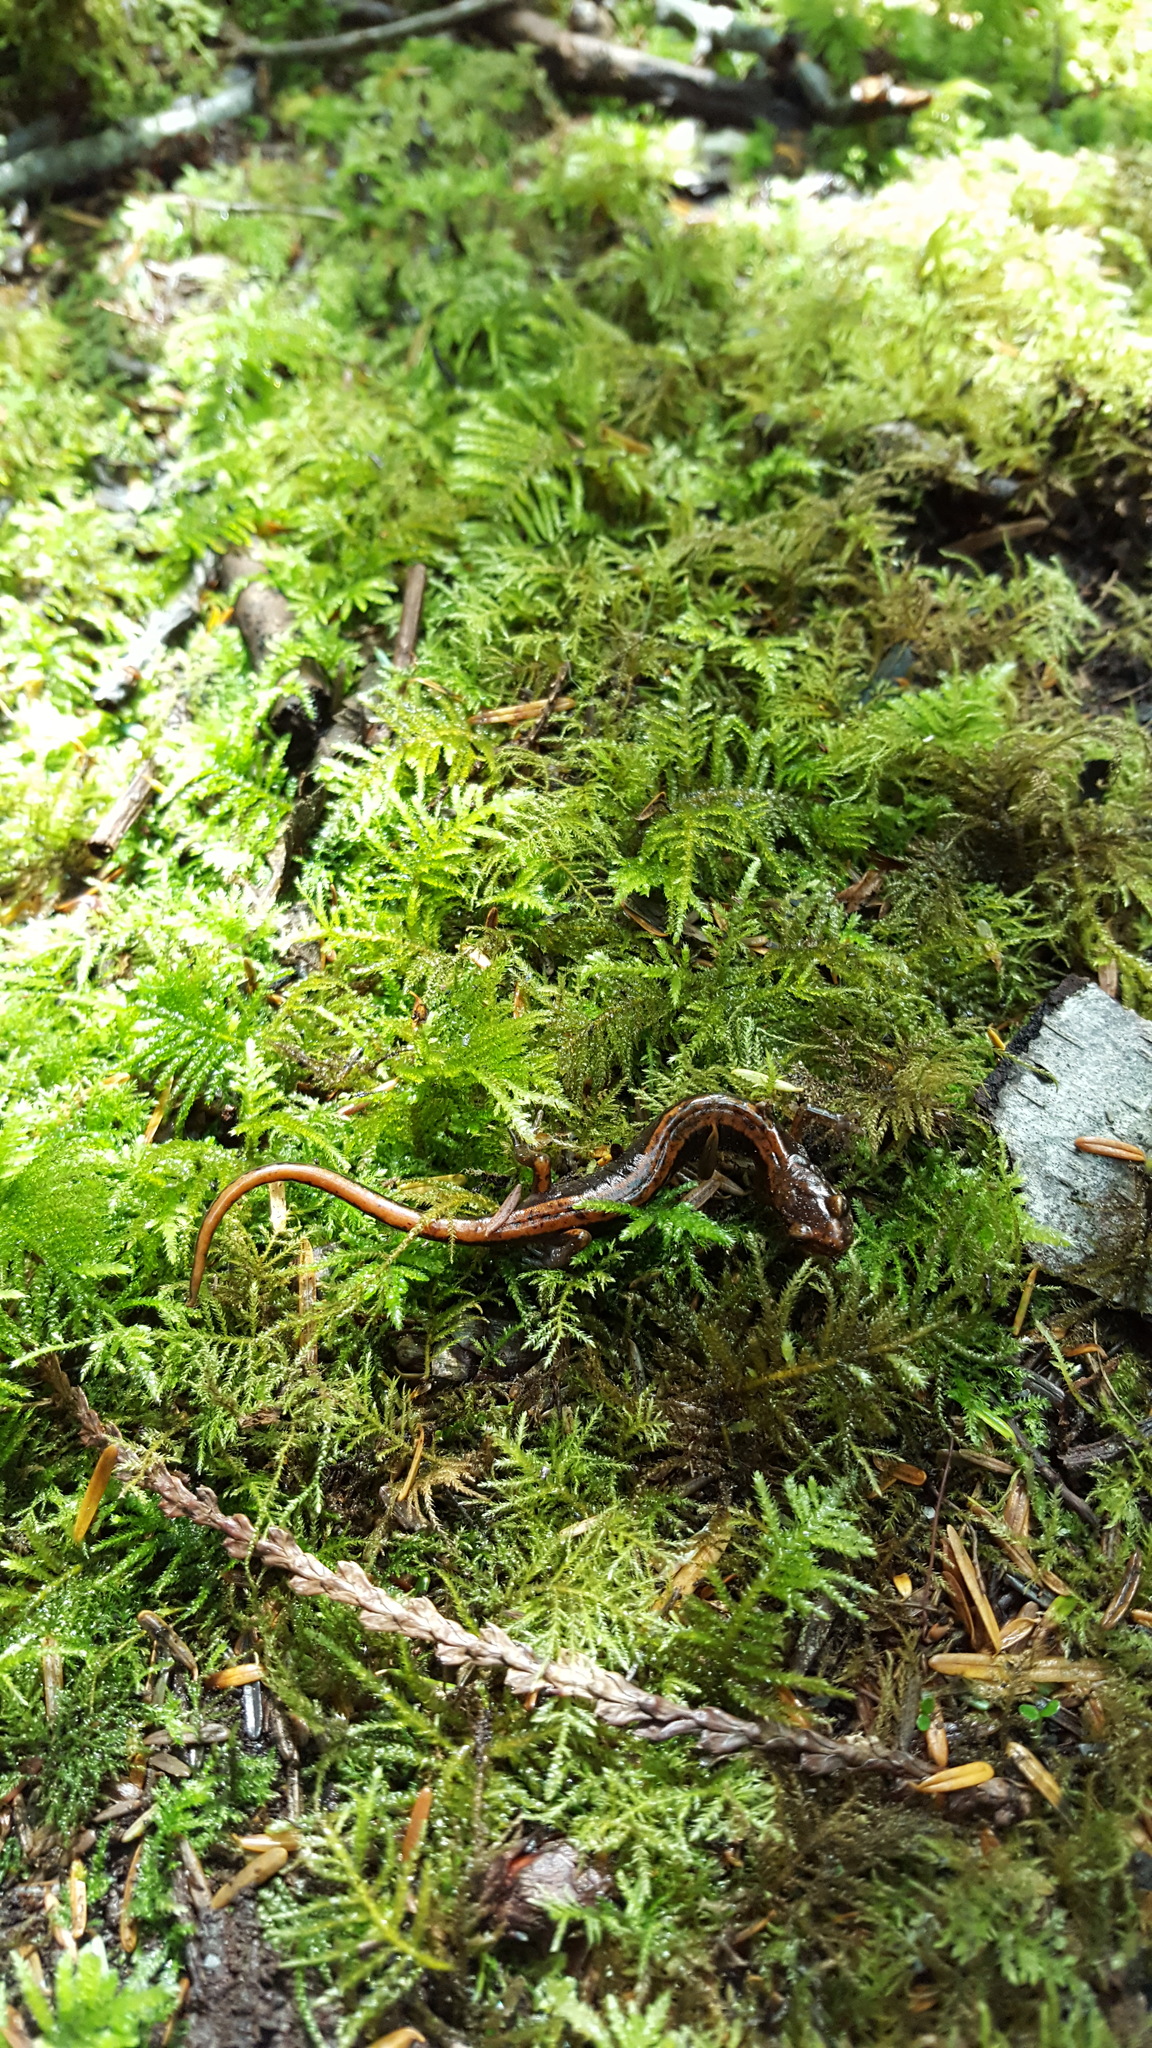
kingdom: Animalia
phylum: Chordata
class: Amphibia
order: Caudata
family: Plethodontidae
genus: Plethodon
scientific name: Plethodon vehiculum
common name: Western red-backed salamander
